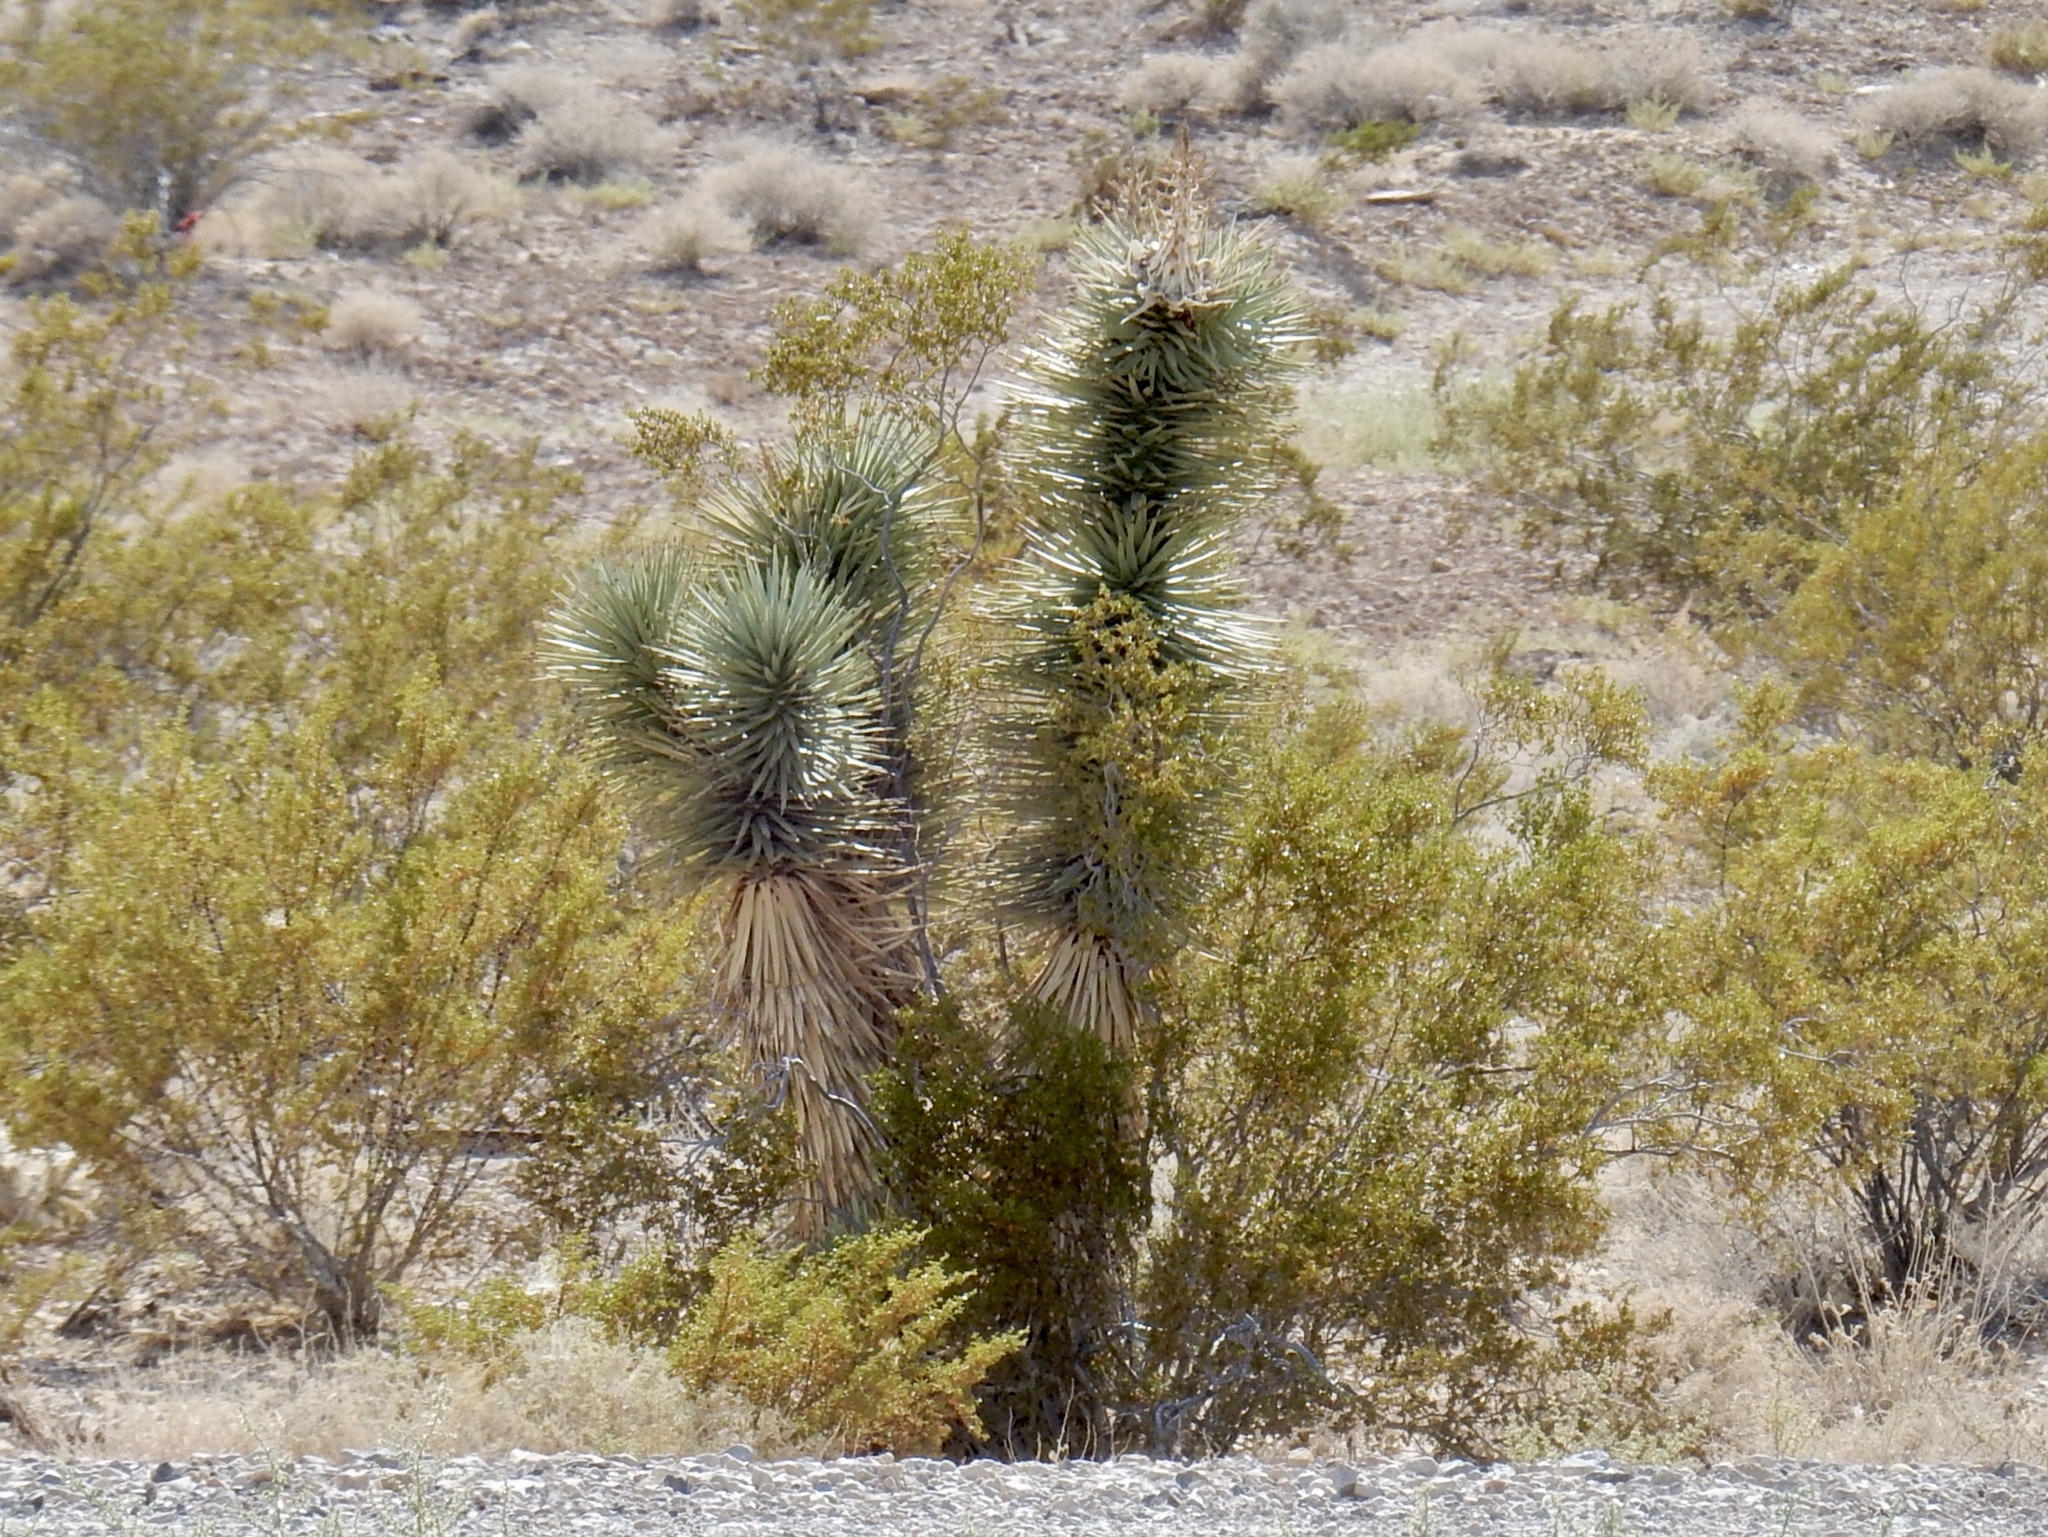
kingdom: Plantae
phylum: Tracheophyta
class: Liliopsida
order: Asparagales
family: Asparagaceae
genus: Yucca
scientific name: Yucca brevifolia
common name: Joshua tree
